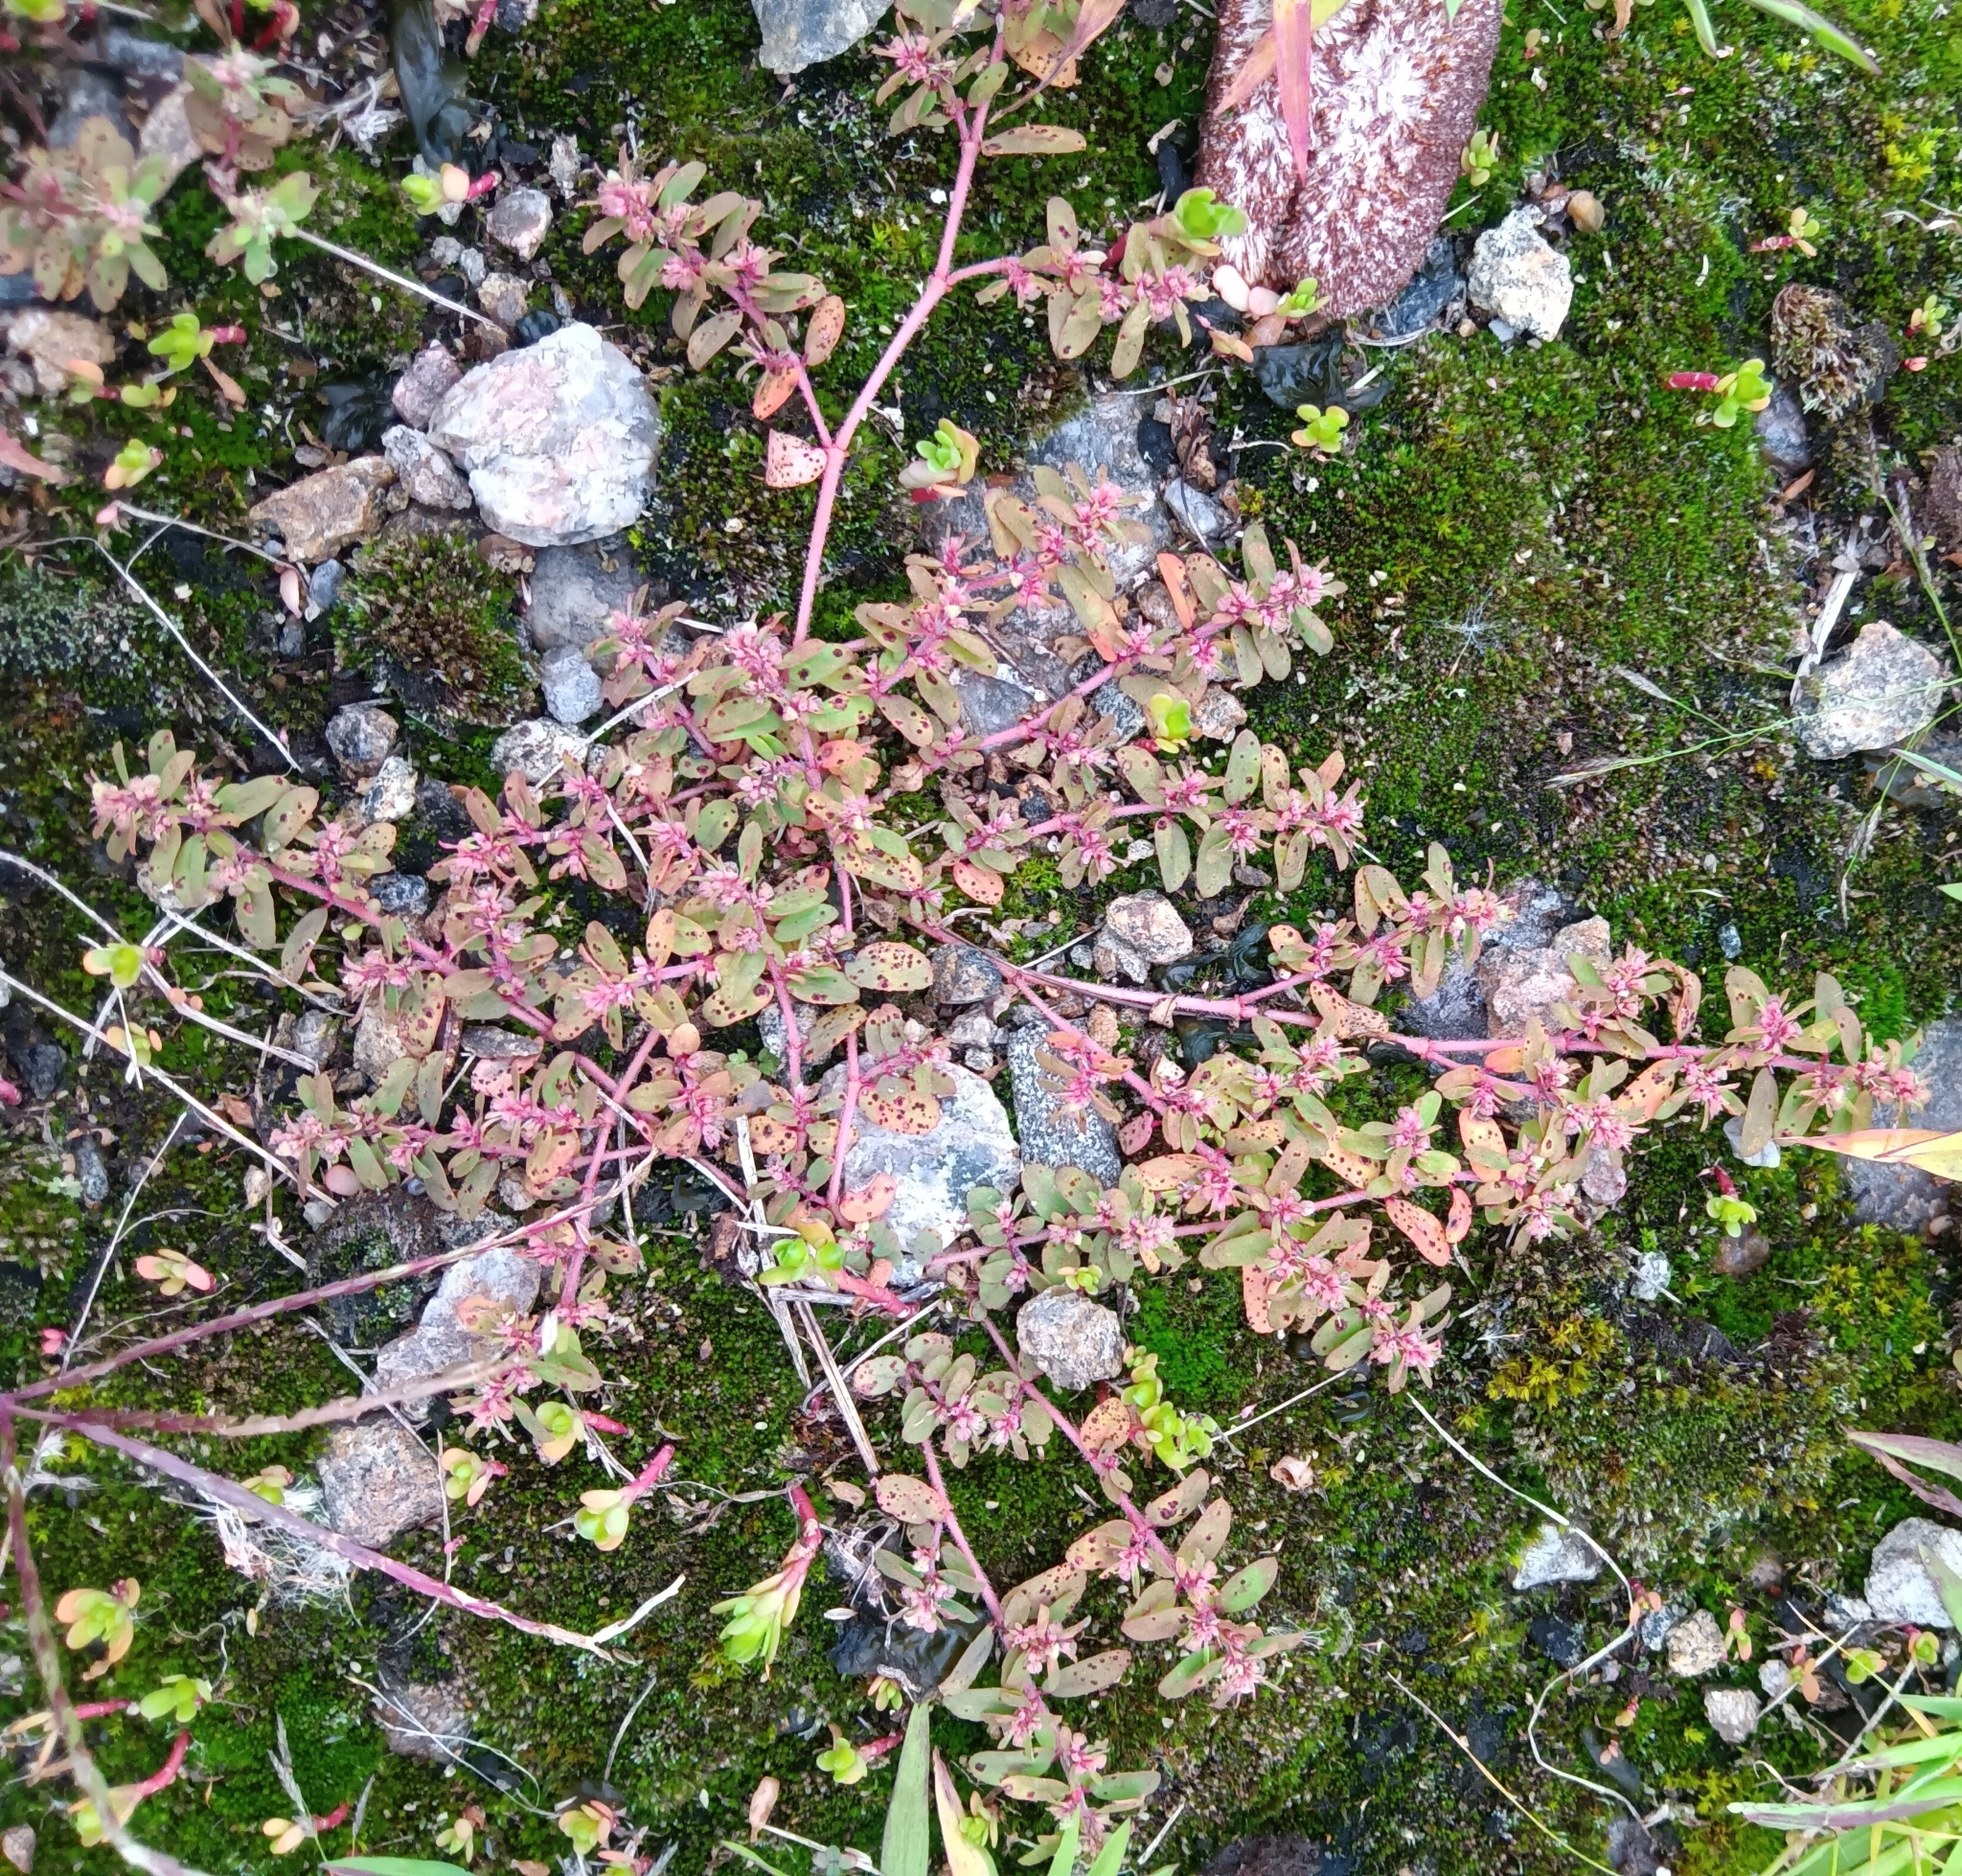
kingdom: Plantae
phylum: Tracheophyta
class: Magnoliopsida
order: Malpighiales
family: Euphorbiaceae
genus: Euphorbia
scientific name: Euphorbia maculata
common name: Spotted spurge
